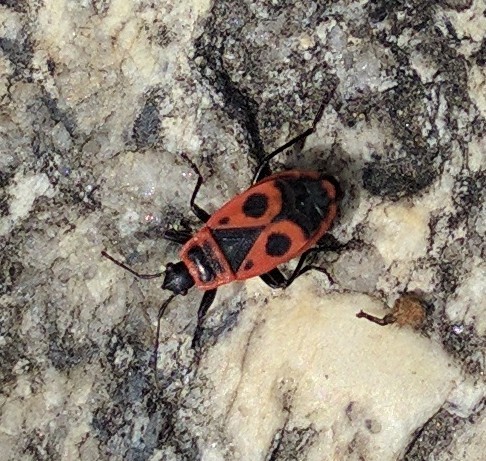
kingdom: Animalia
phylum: Arthropoda
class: Insecta
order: Hemiptera
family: Pyrrhocoridae
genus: Pyrrhocoris
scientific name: Pyrrhocoris apterus
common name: Firebug
